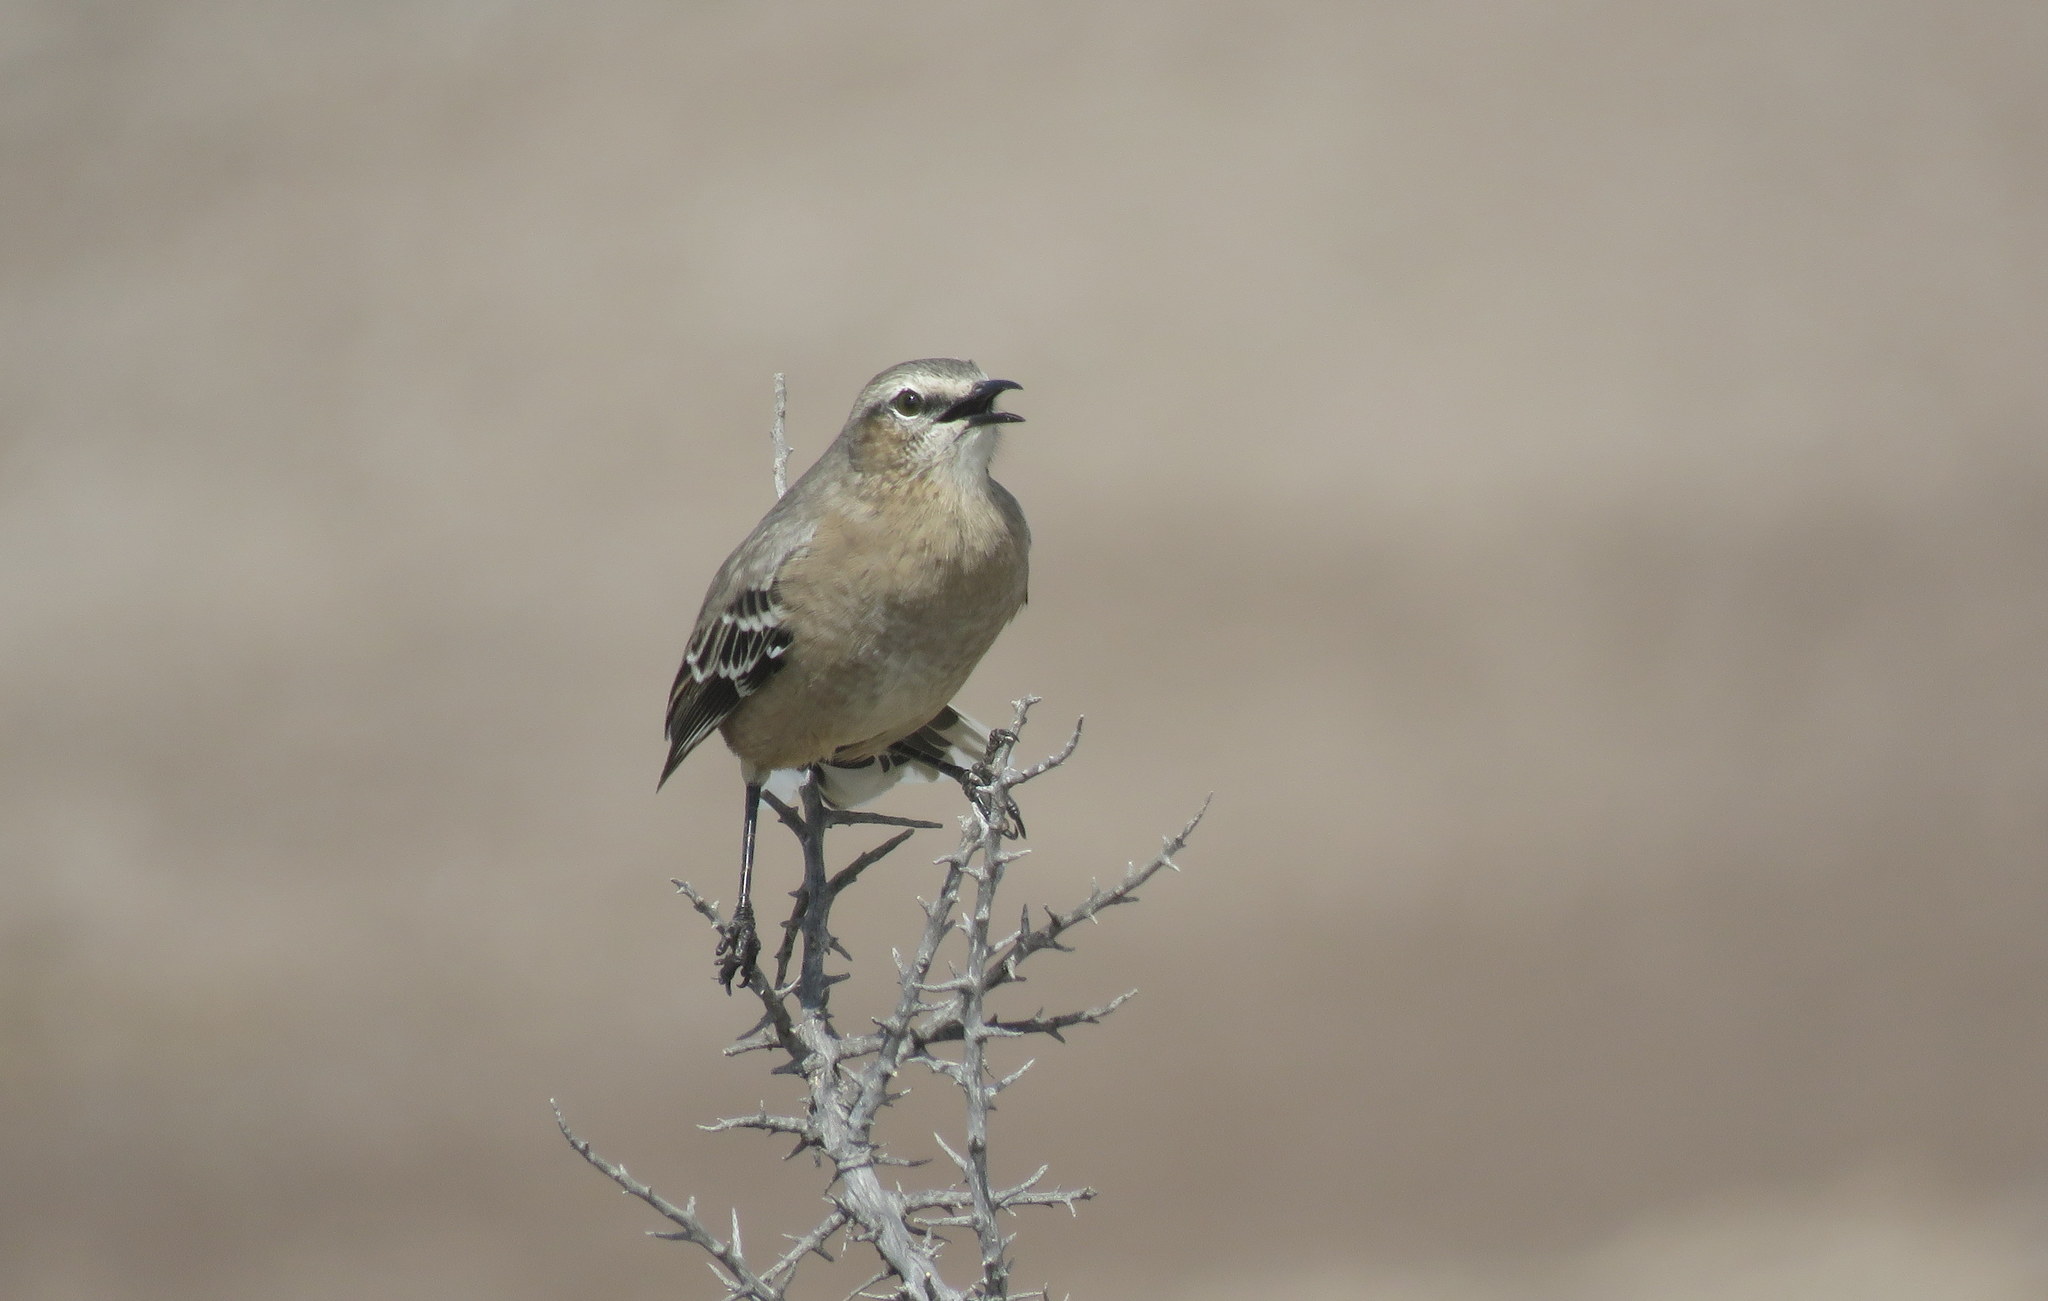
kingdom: Animalia
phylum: Chordata
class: Aves
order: Passeriformes
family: Mimidae
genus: Mimus
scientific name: Mimus patagonicus
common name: Patagonian mockingbird
